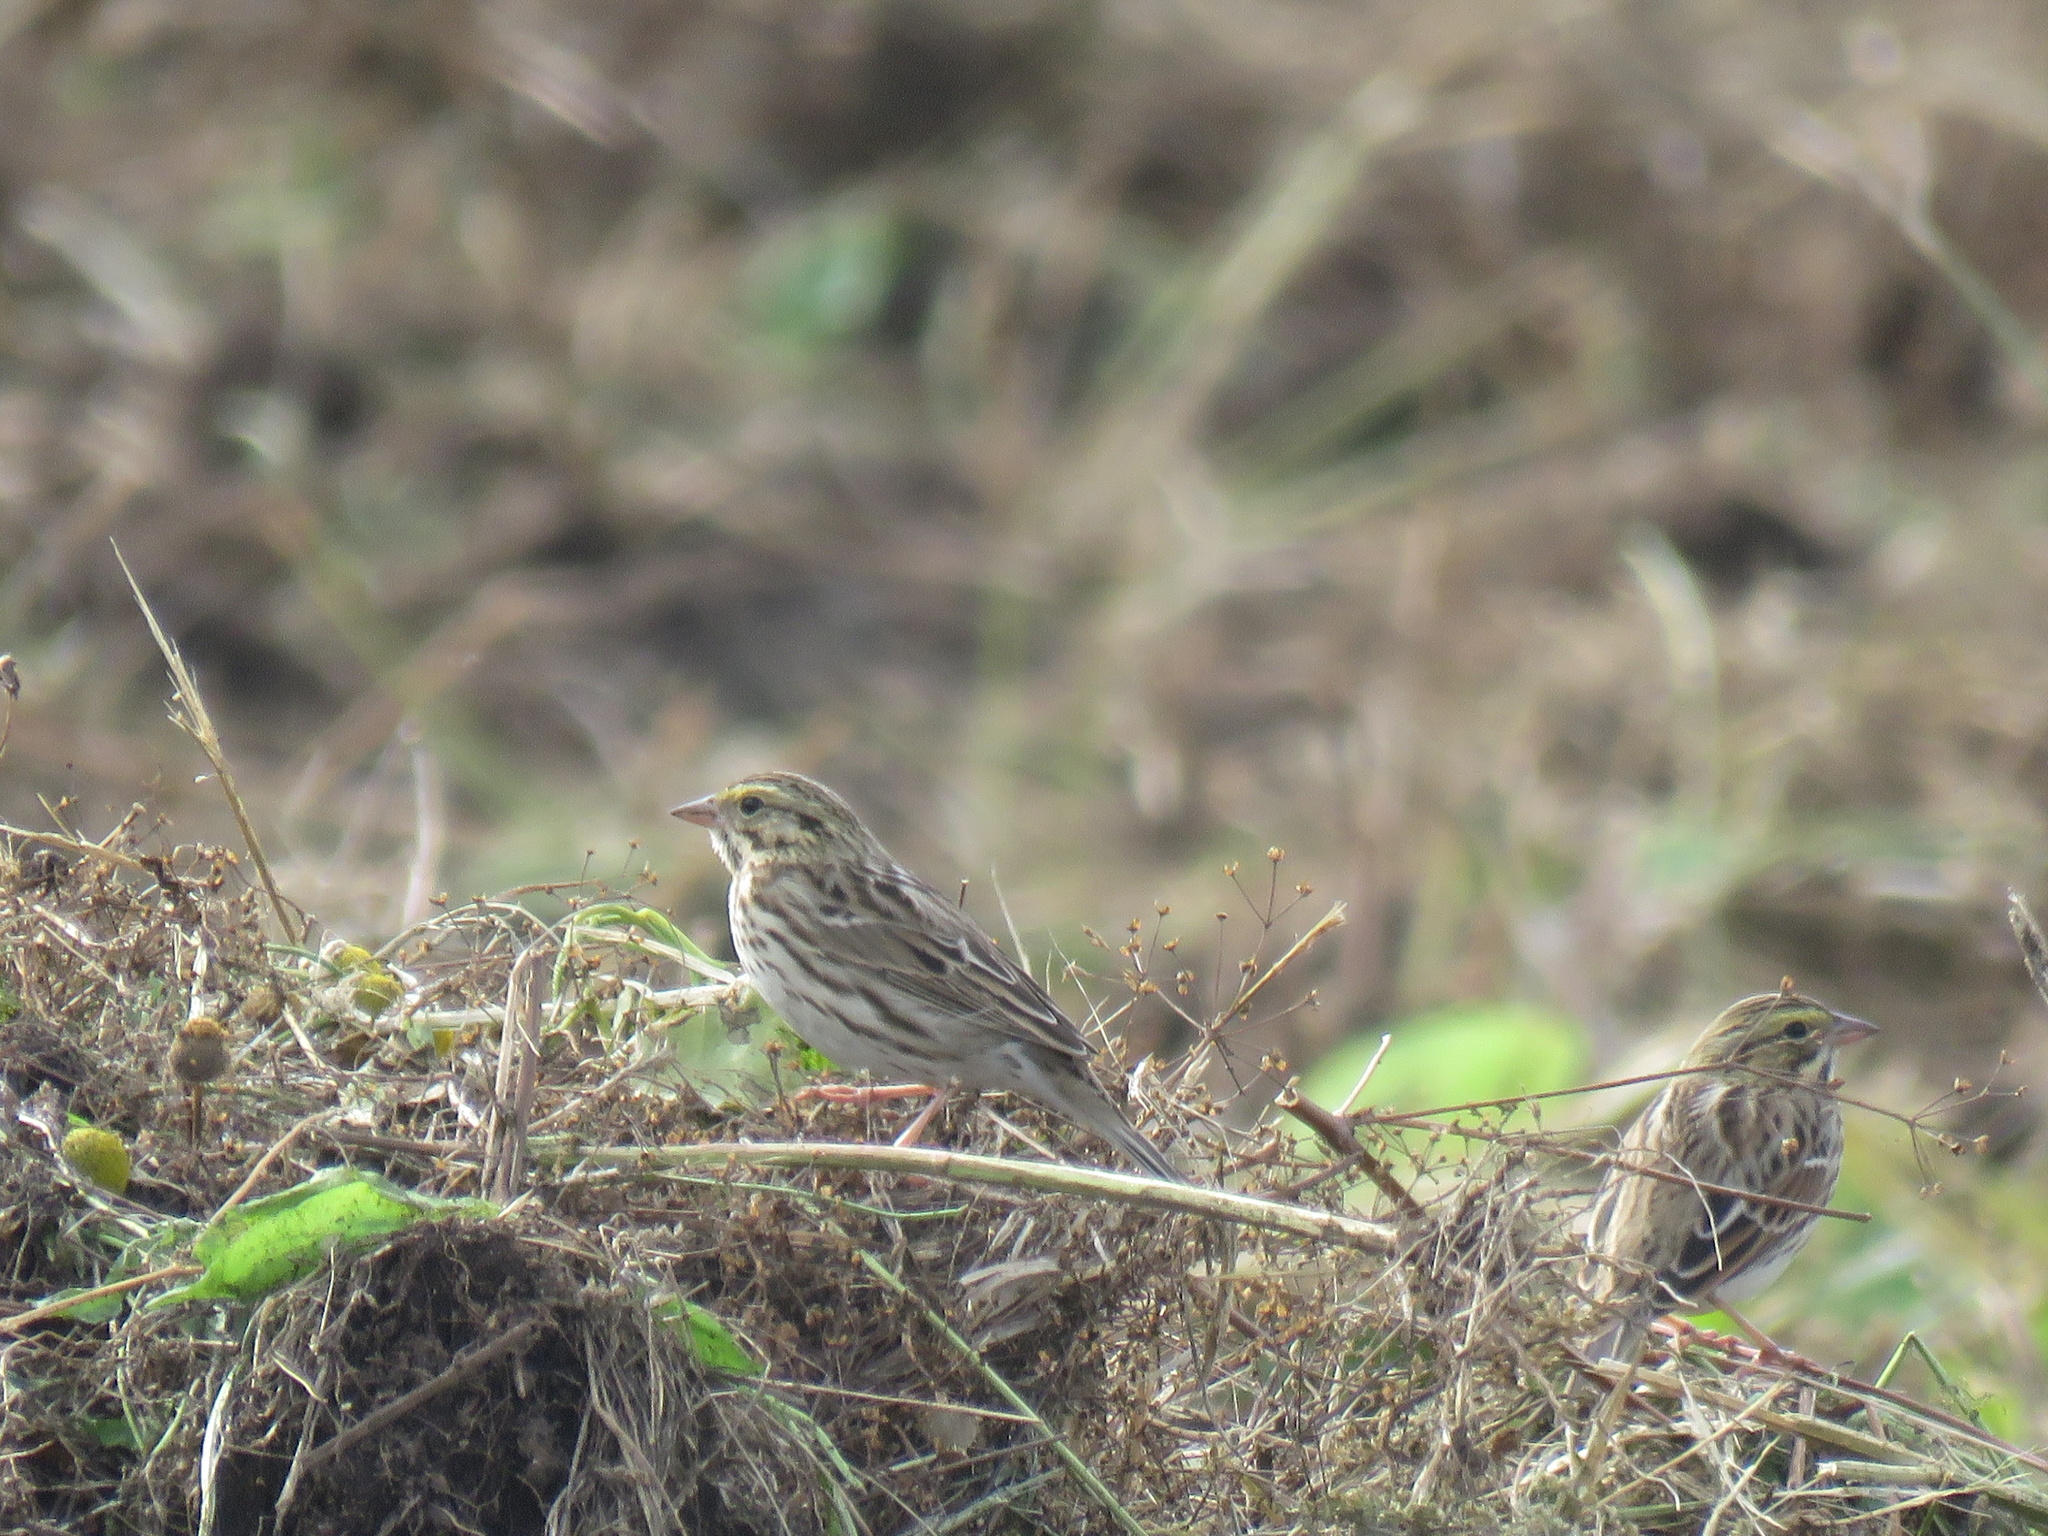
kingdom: Animalia
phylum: Chordata
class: Aves
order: Passeriformes
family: Passerellidae
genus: Passerculus
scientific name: Passerculus sandwichensis
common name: Savannah sparrow
